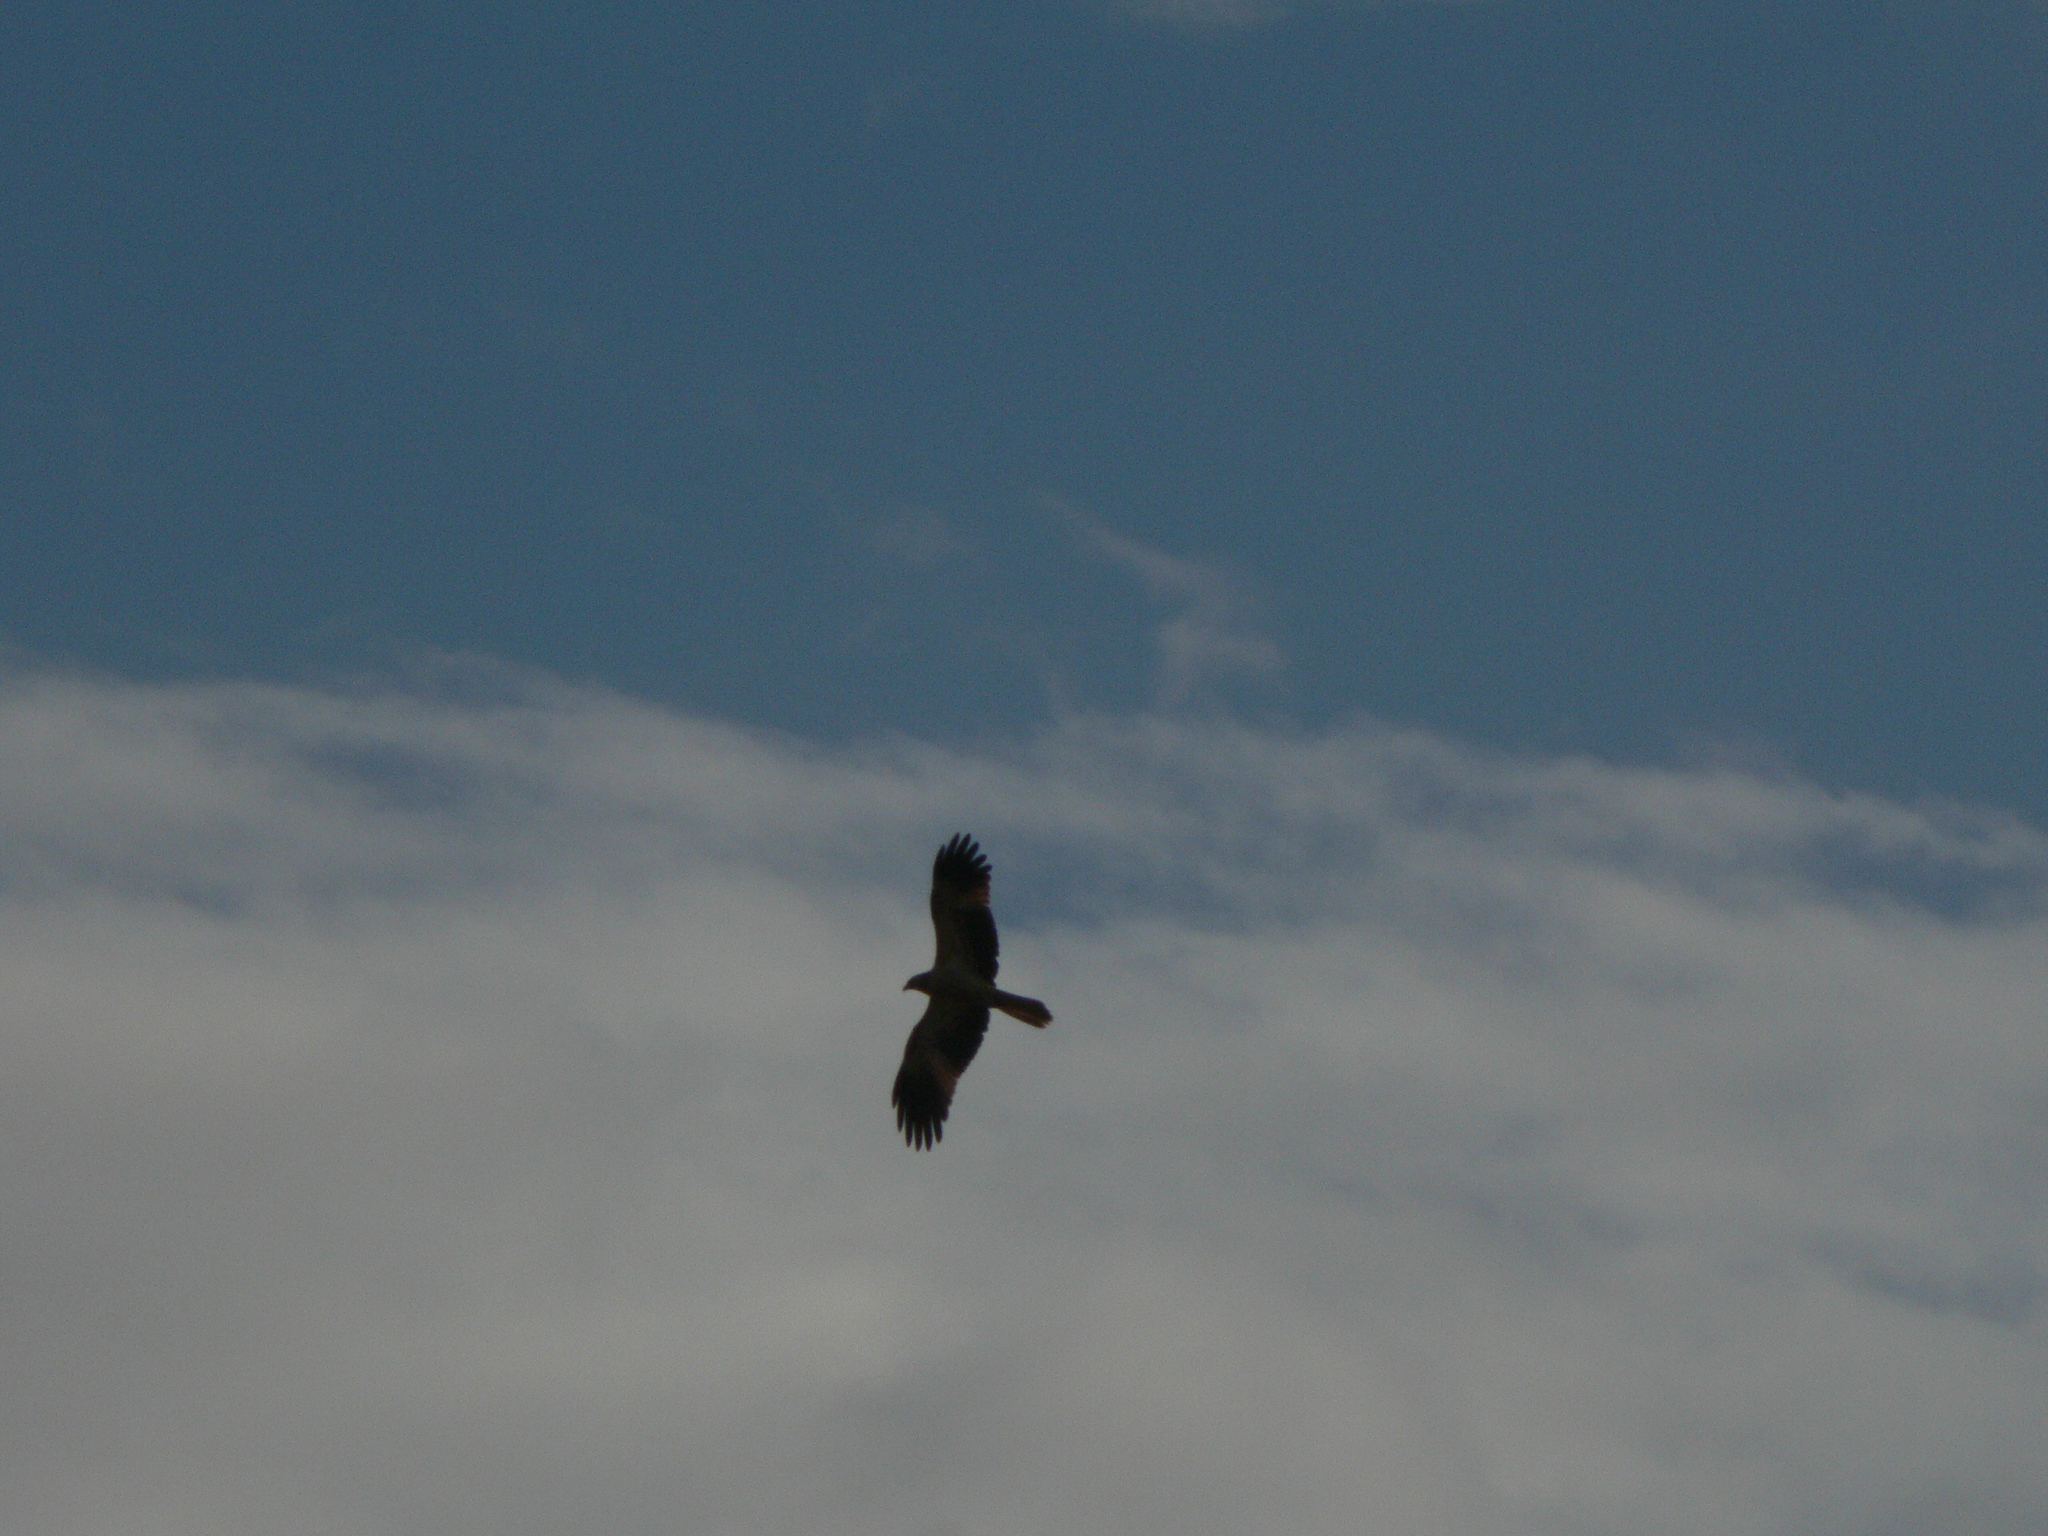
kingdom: Animalia
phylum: Chordata
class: Aves
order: Accipitriformes
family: Accipitridae
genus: Haliastur
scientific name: Haliastur sphenurus
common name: Whistling kite
